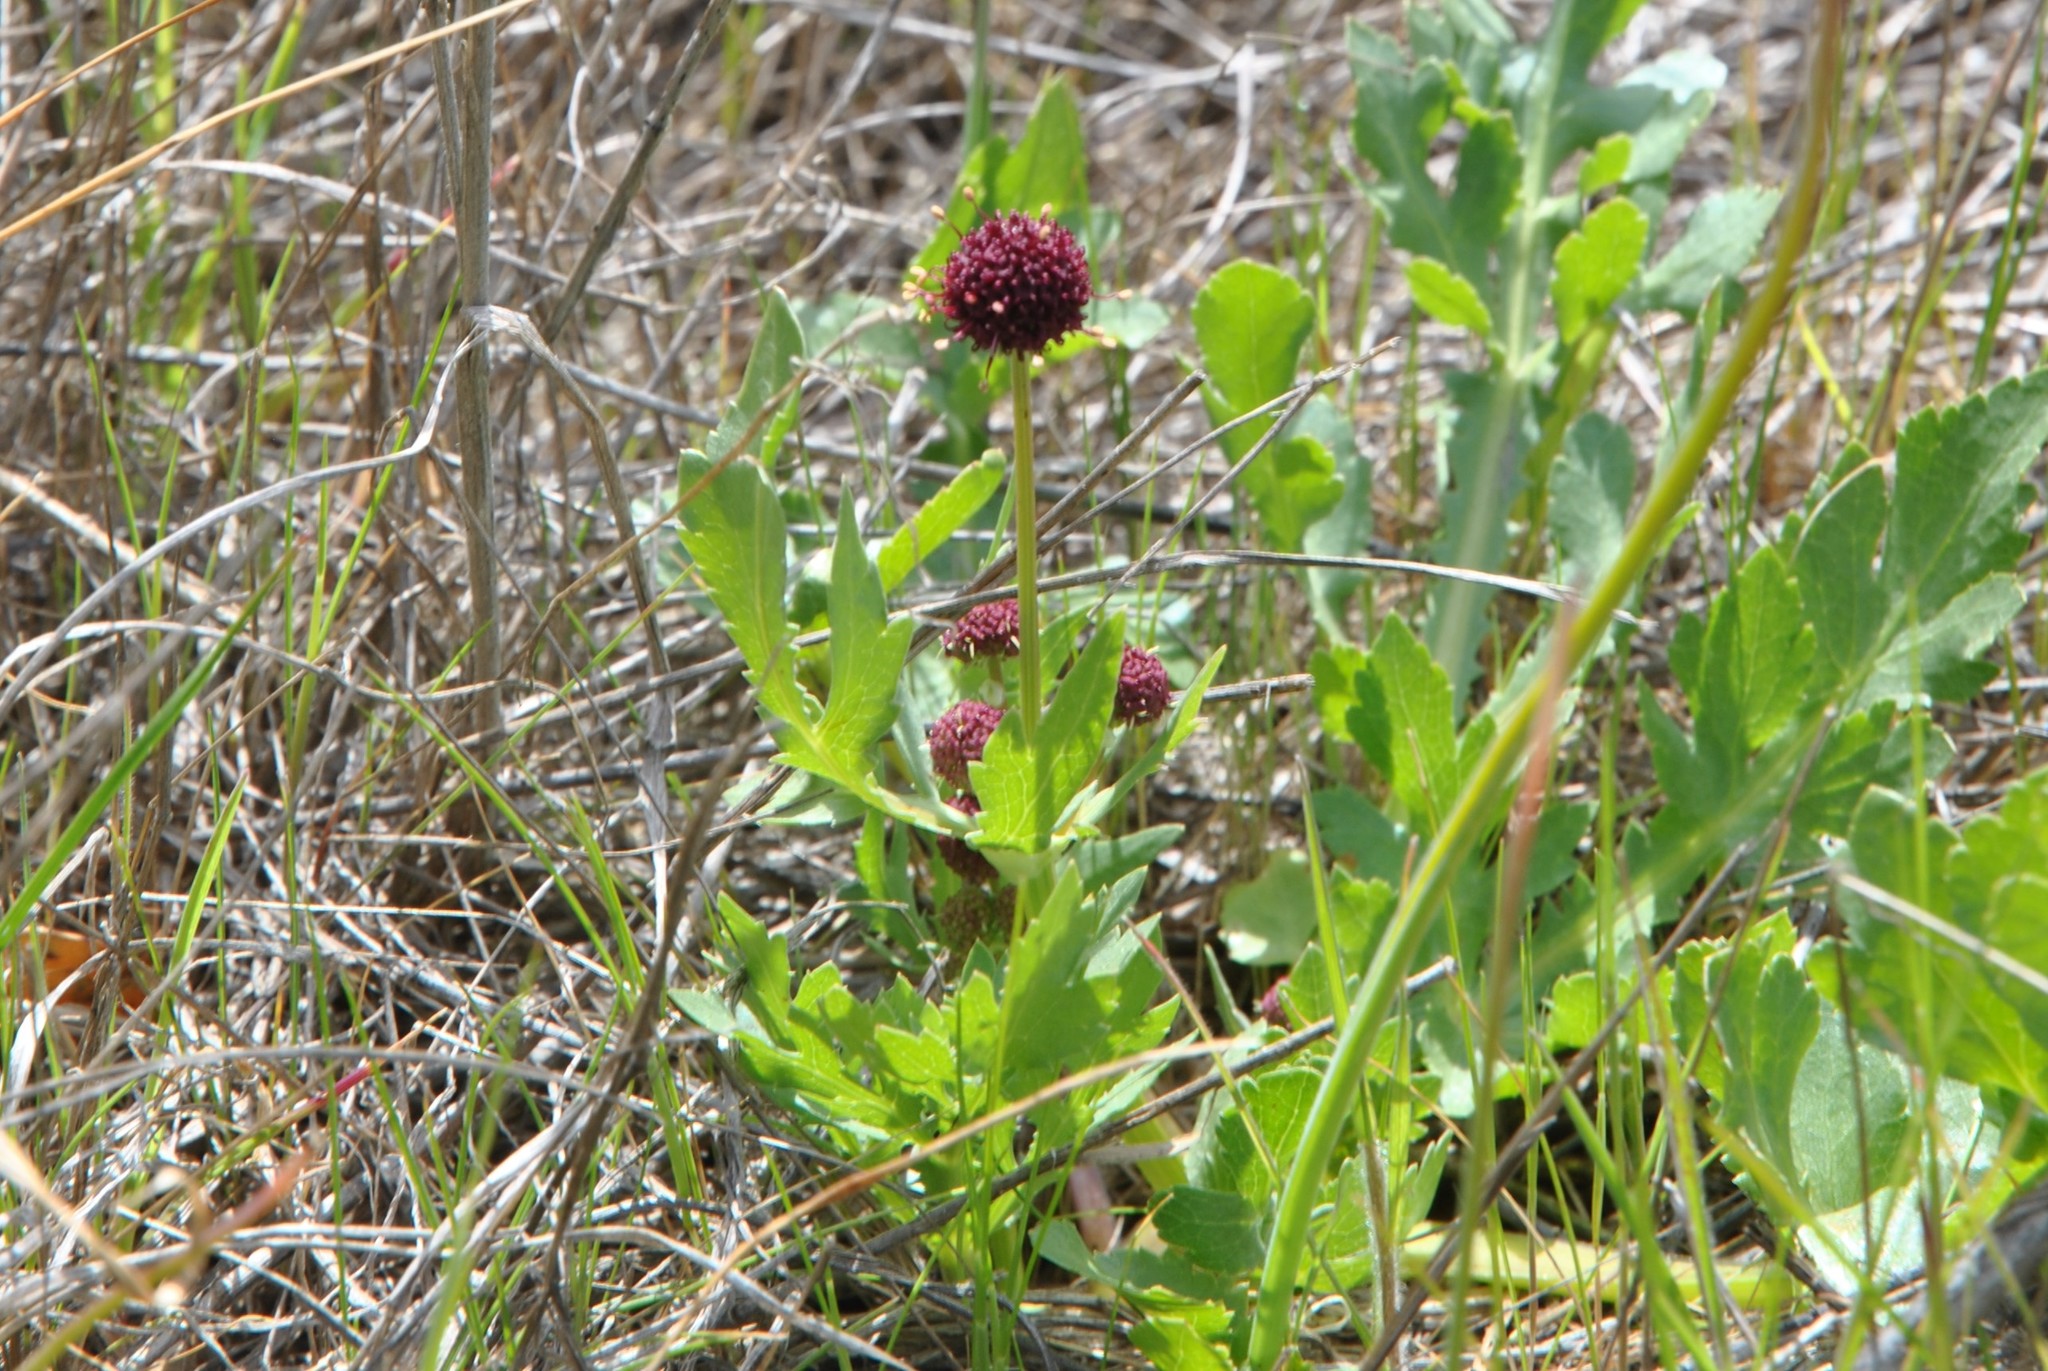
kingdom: Plantae
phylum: Tracheophyta
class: Magnoliopsida
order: Apiales
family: Apiaceae
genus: Sanicula
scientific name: Sanicula bipinnatifida
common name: Shoe-buttons
